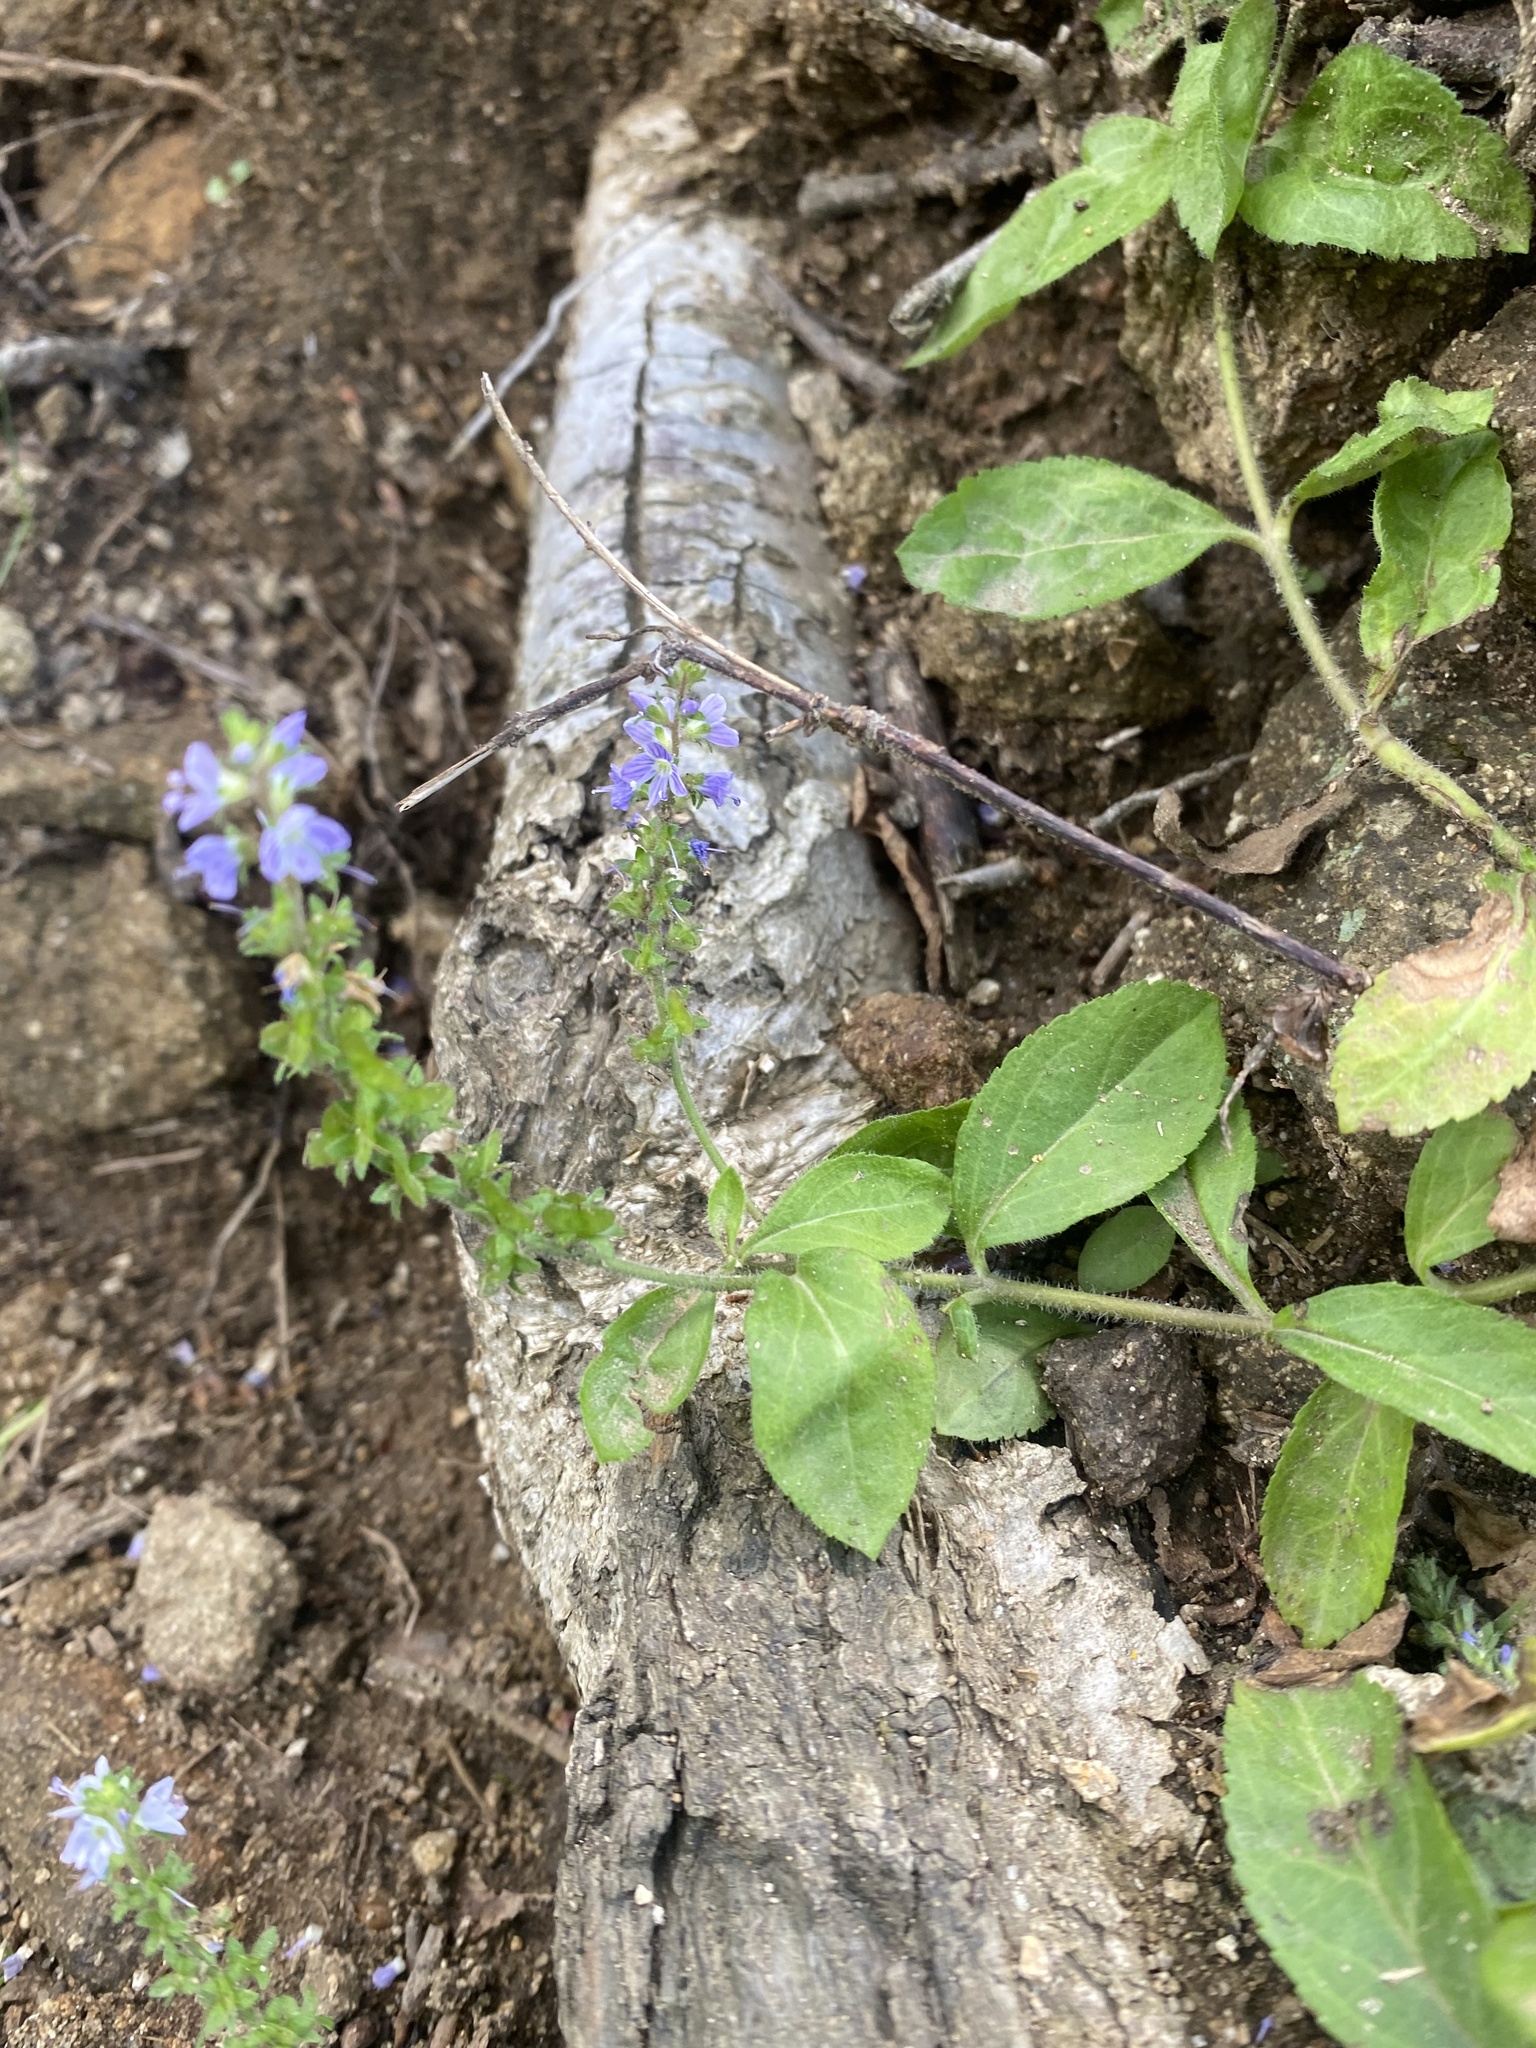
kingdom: Plantae
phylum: Tracheophyta
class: Magnoliopsida
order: Lamiales
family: Plantaginaceae
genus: Veronica
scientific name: Veronica officinalis
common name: Common speedwell
